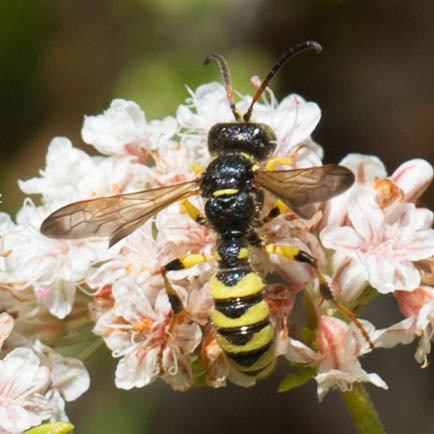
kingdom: Animalia
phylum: Arthropoda
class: Insecta
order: Hymenoptera
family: Crabronidae
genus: Cerceris
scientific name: Cerceris sextoides
